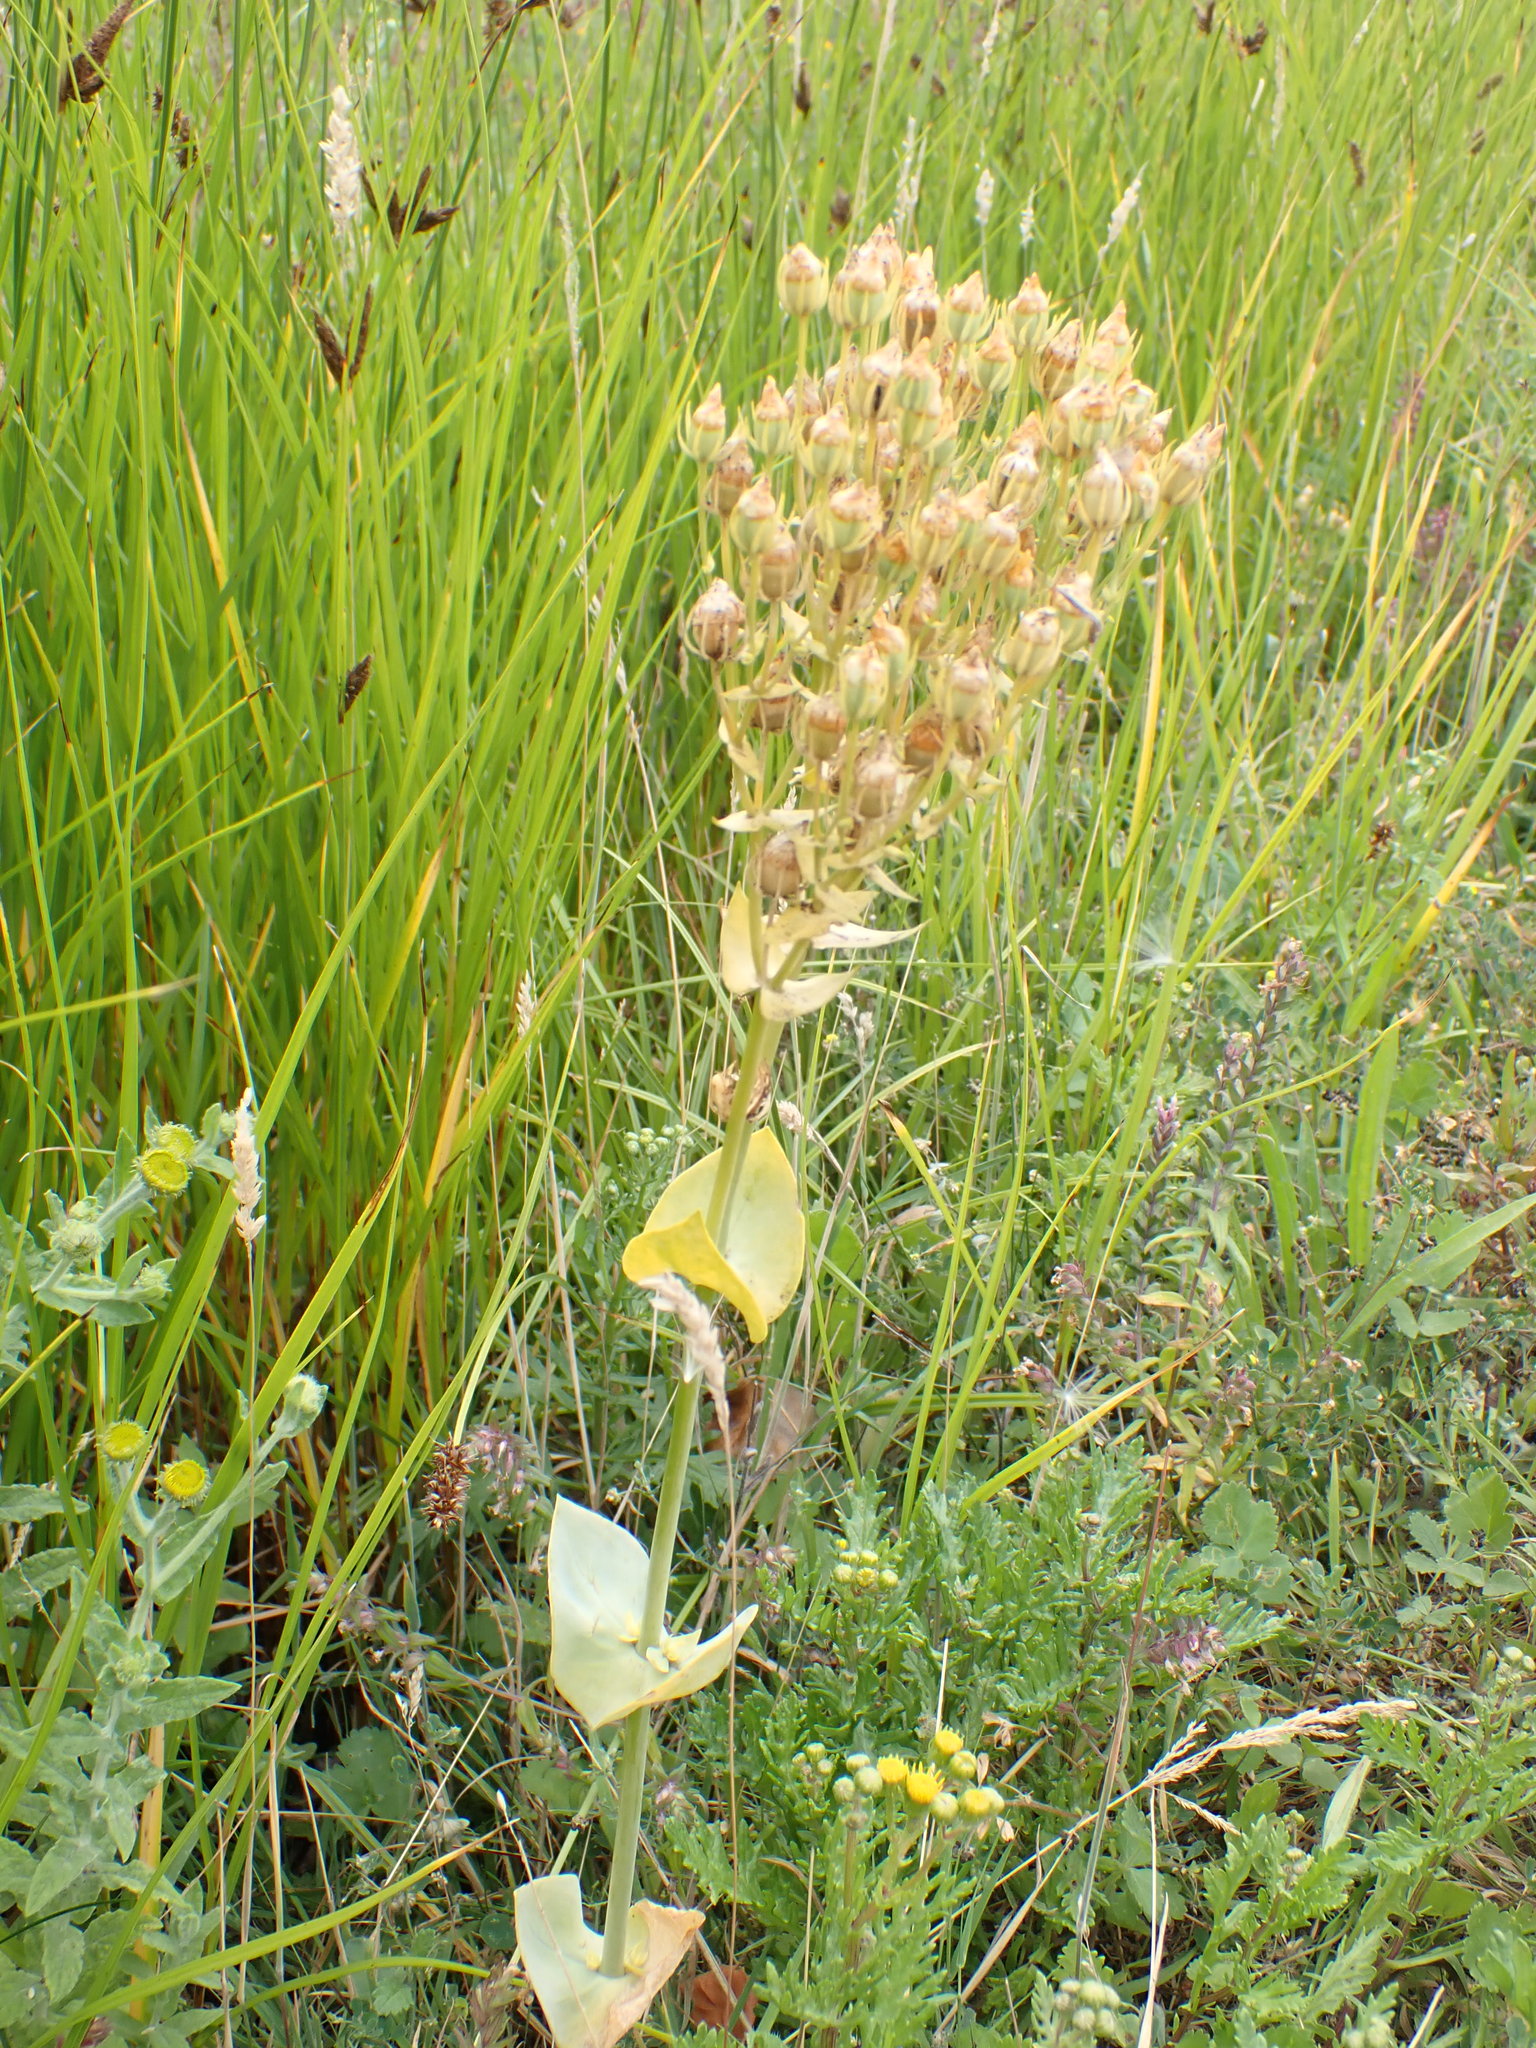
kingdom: Plantae
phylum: Tracheophyta
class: Magnoliopsida
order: Gentianales
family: Gentianaceae
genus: Blackstonia
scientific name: Blackstonia perfoliata
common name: Yellow-wort
